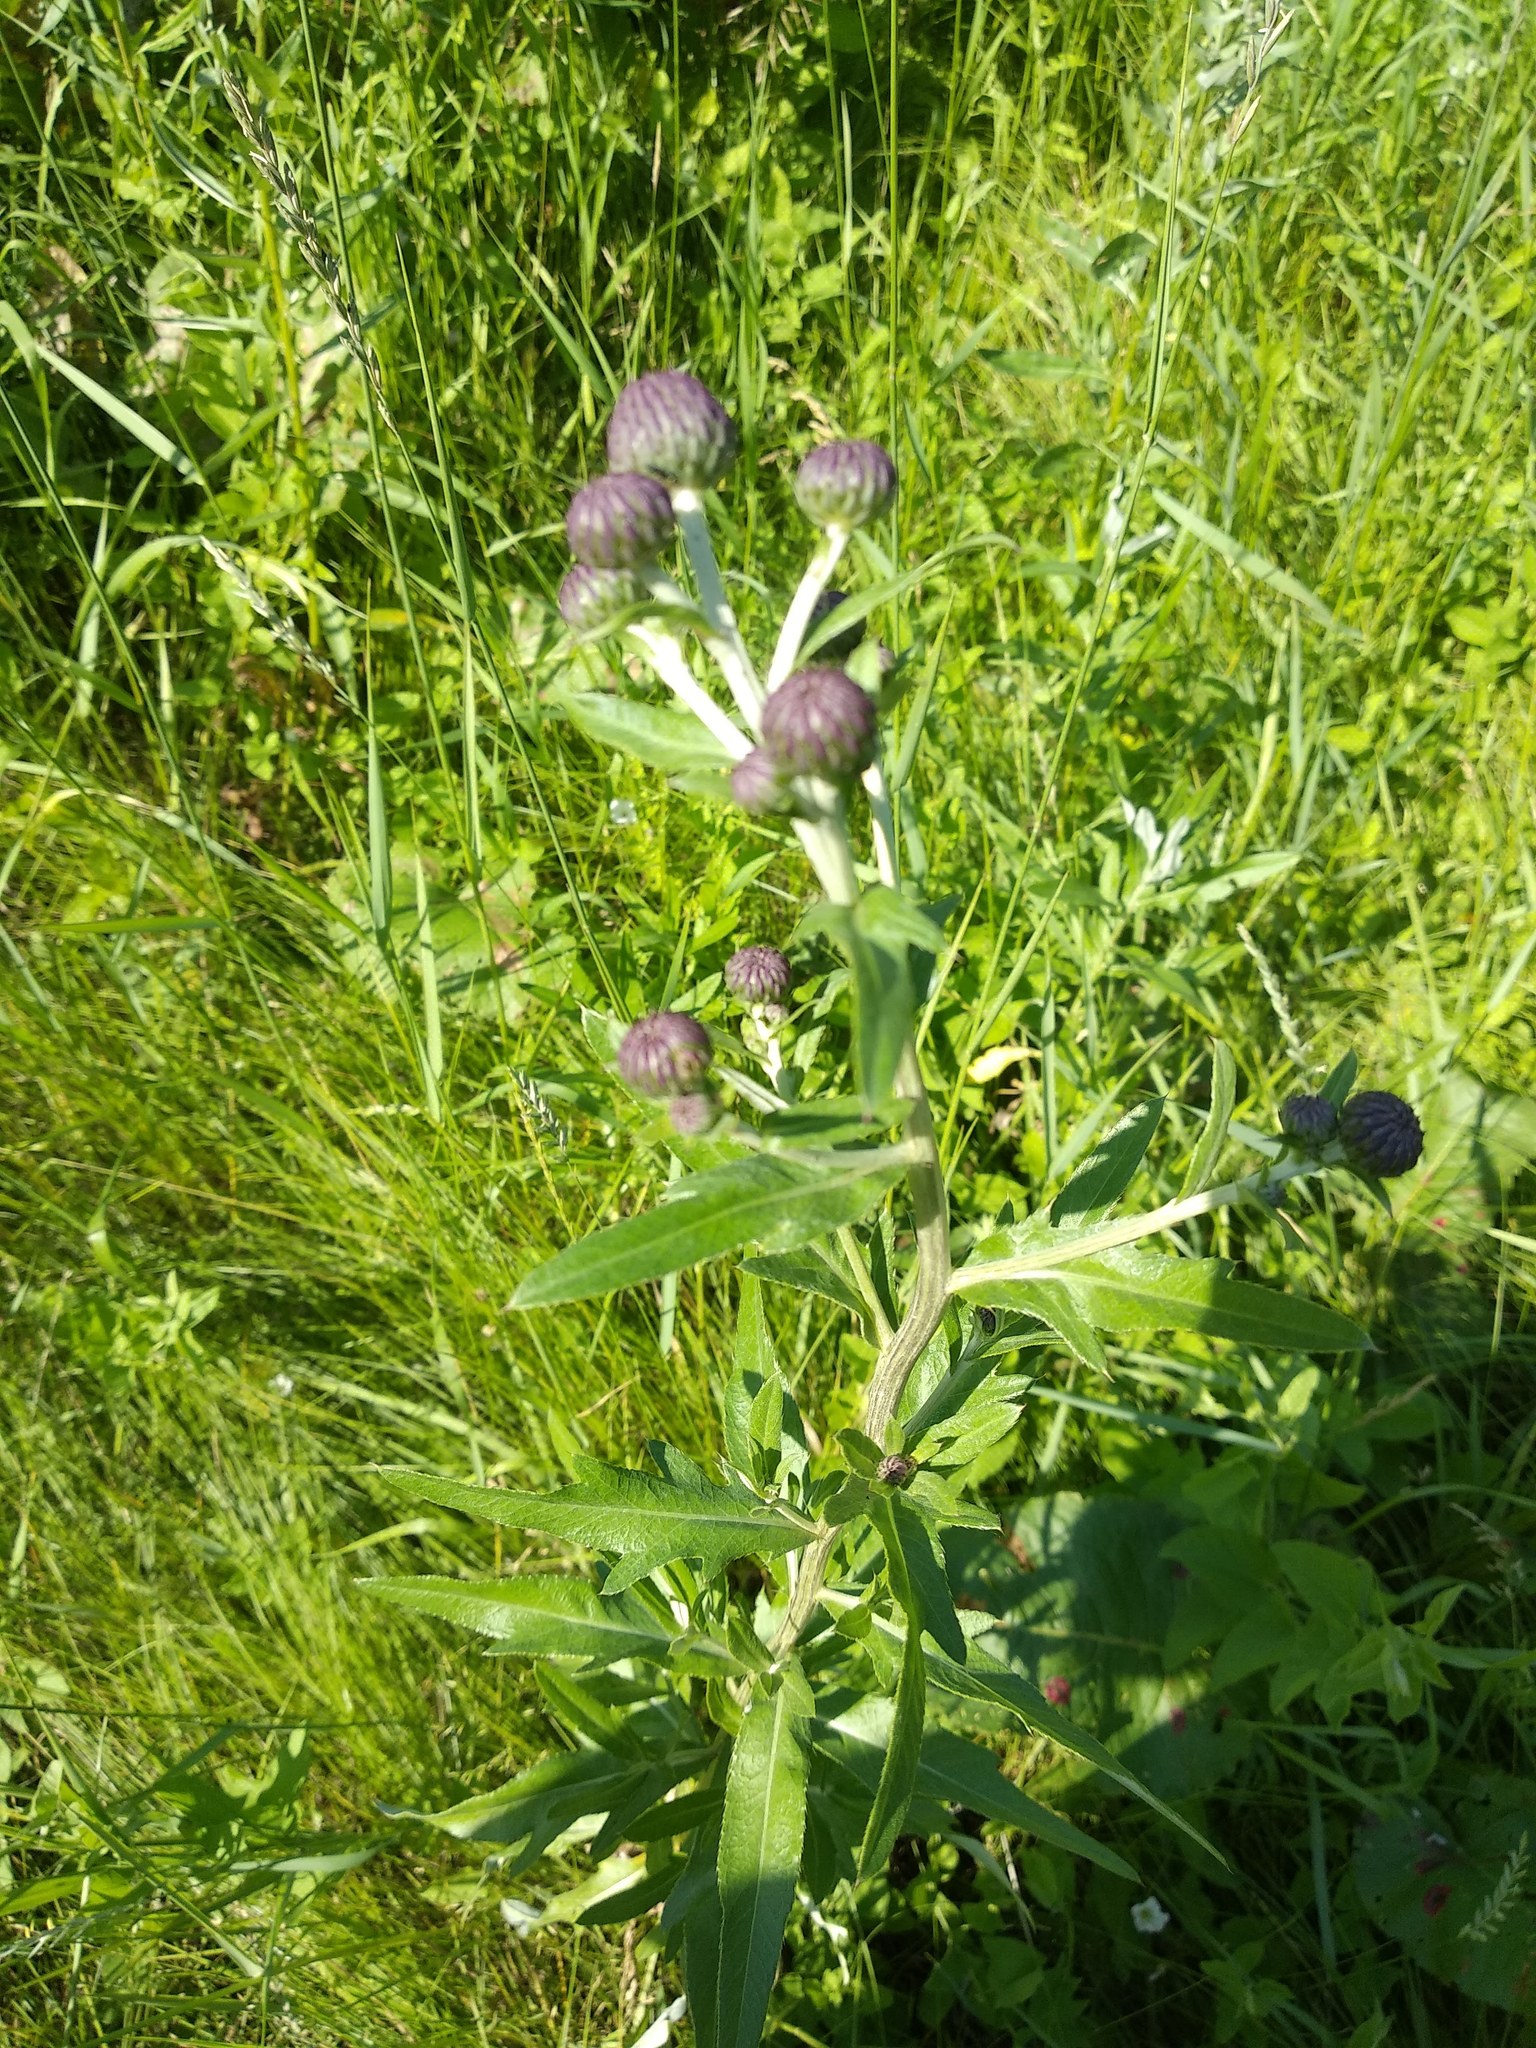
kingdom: Plantae
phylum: Tracheophyta
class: Magnoliopsida
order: Asterales
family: Asteraceae
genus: Cirsium
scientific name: Cirsium arvense
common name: Creeping thistle
